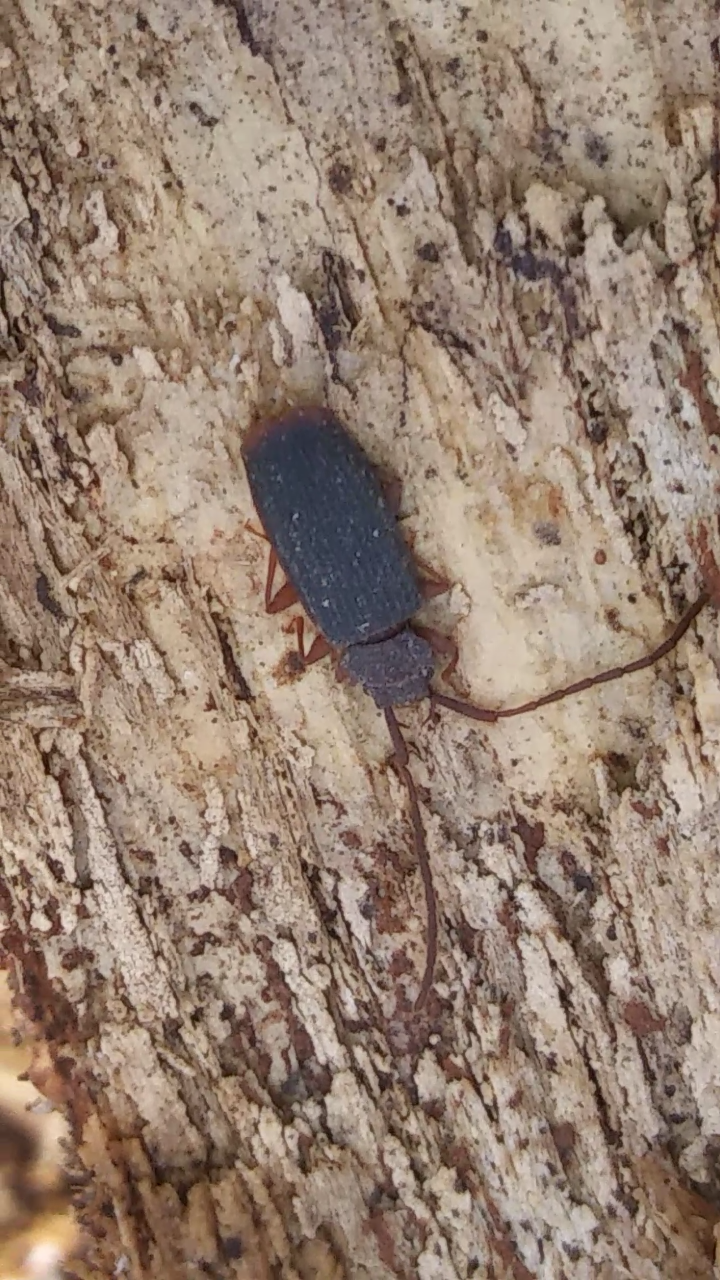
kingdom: Animalia
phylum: Arthropoda
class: Insecta
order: Coleoptera
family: Silvanidae
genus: Uleiota
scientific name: Uleiota dubia
